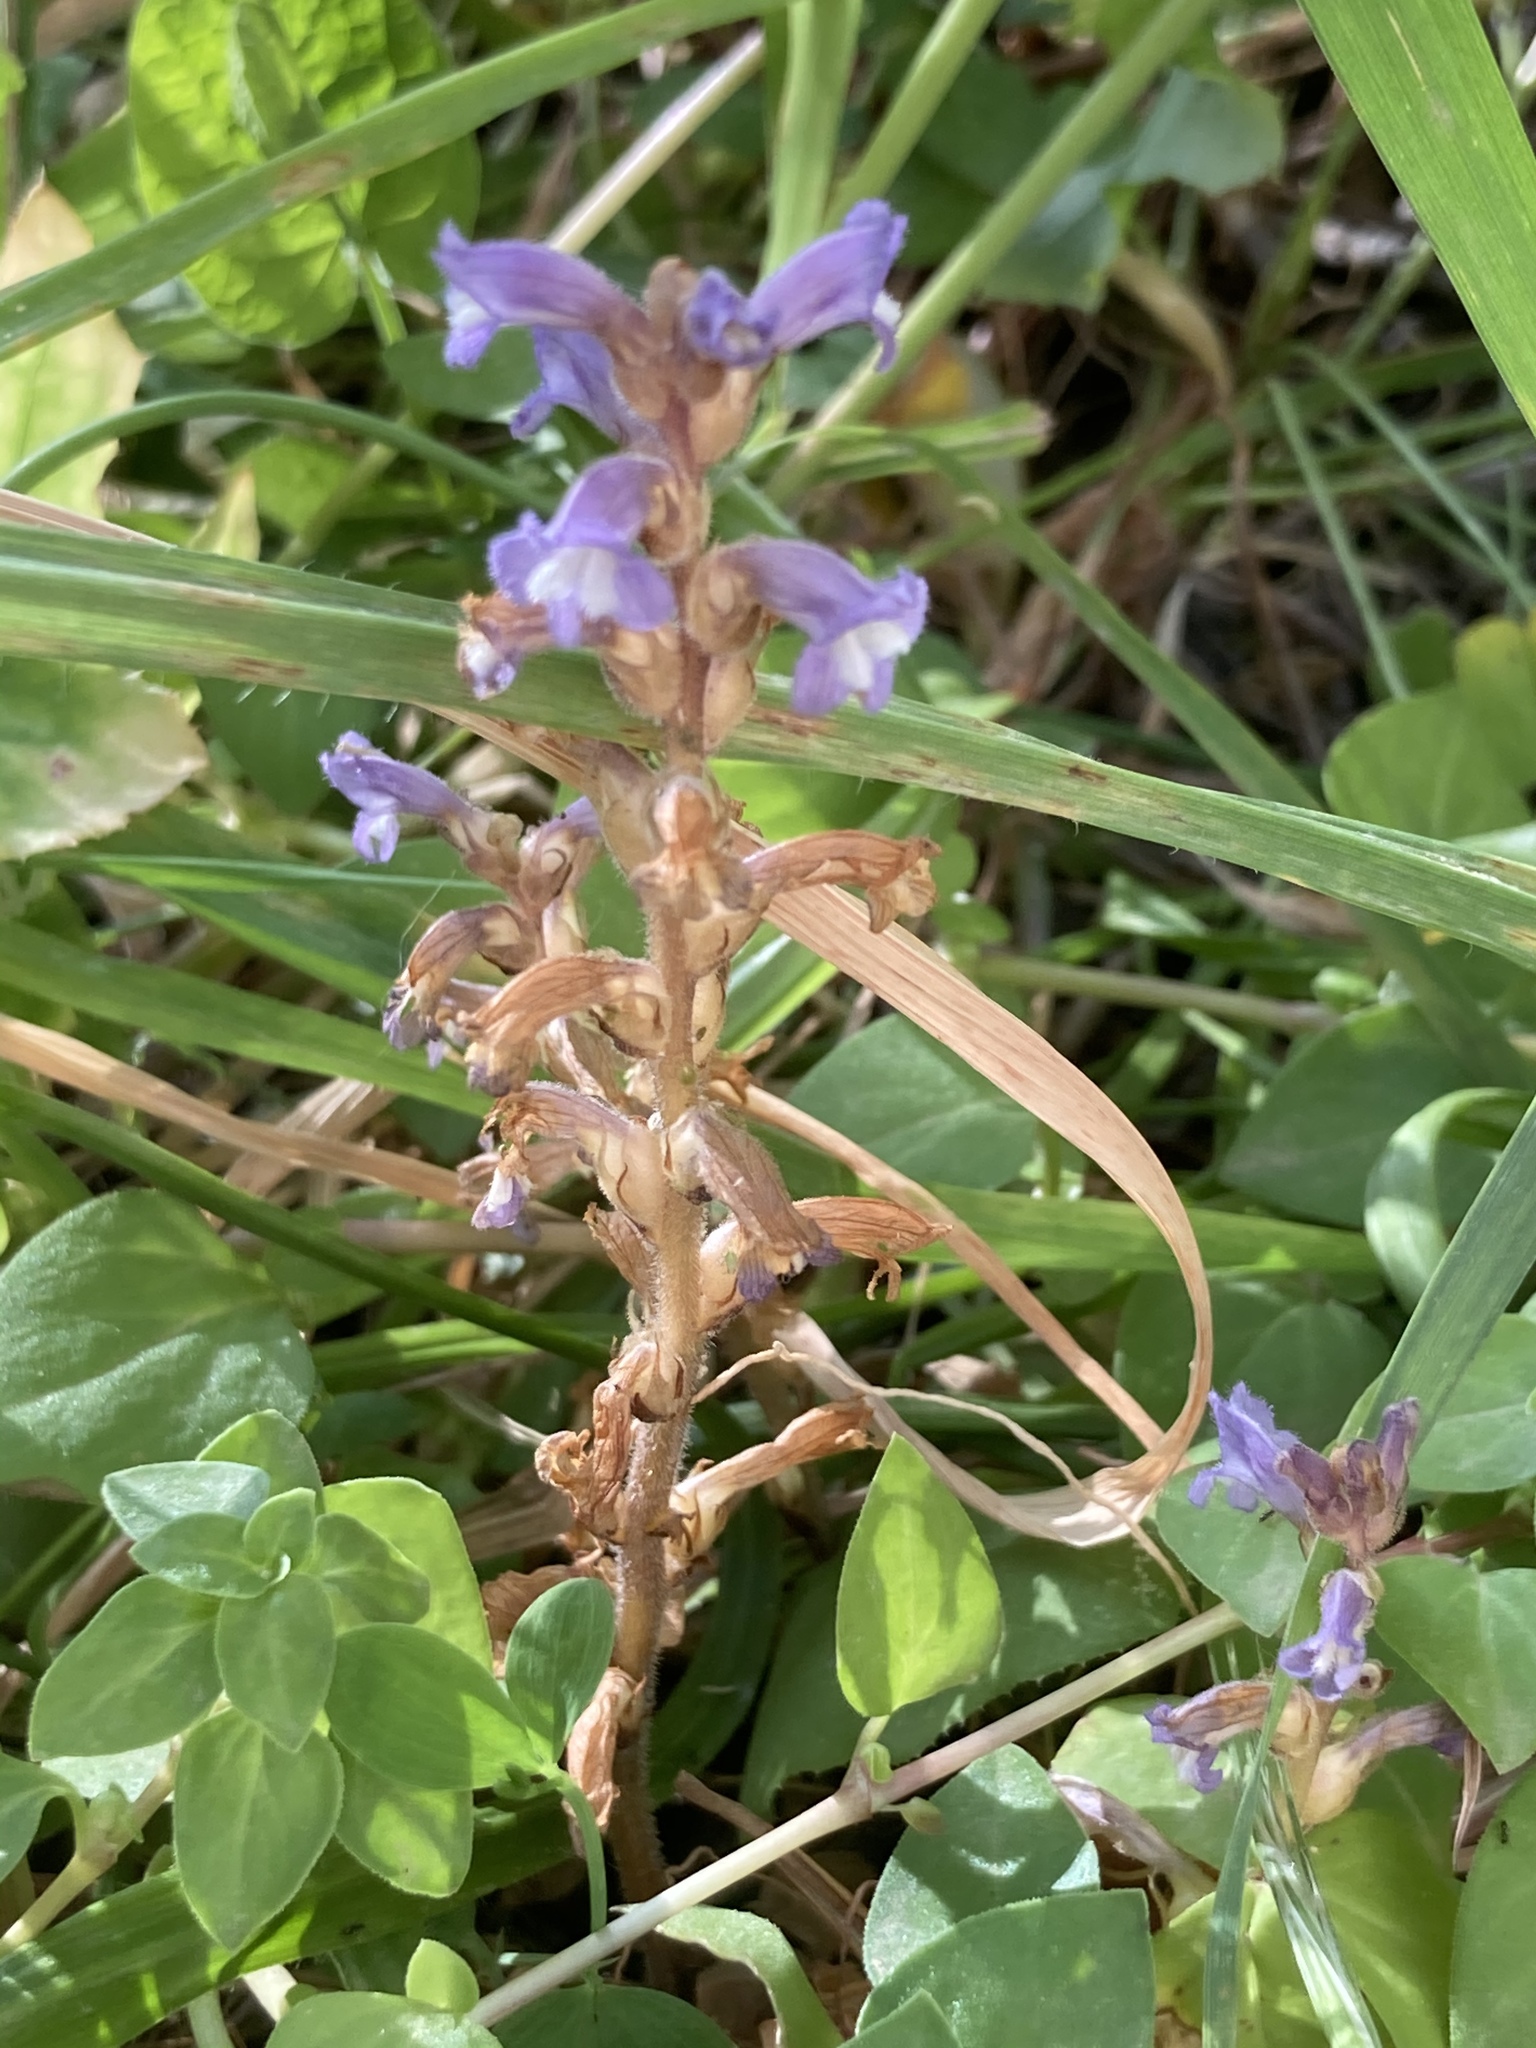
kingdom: Plantae
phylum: Tracheophyta
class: Magnoliopsida
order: Lamiales
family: Orobanchaceae
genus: Phelipanche
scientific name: Phelipanche mutelii
